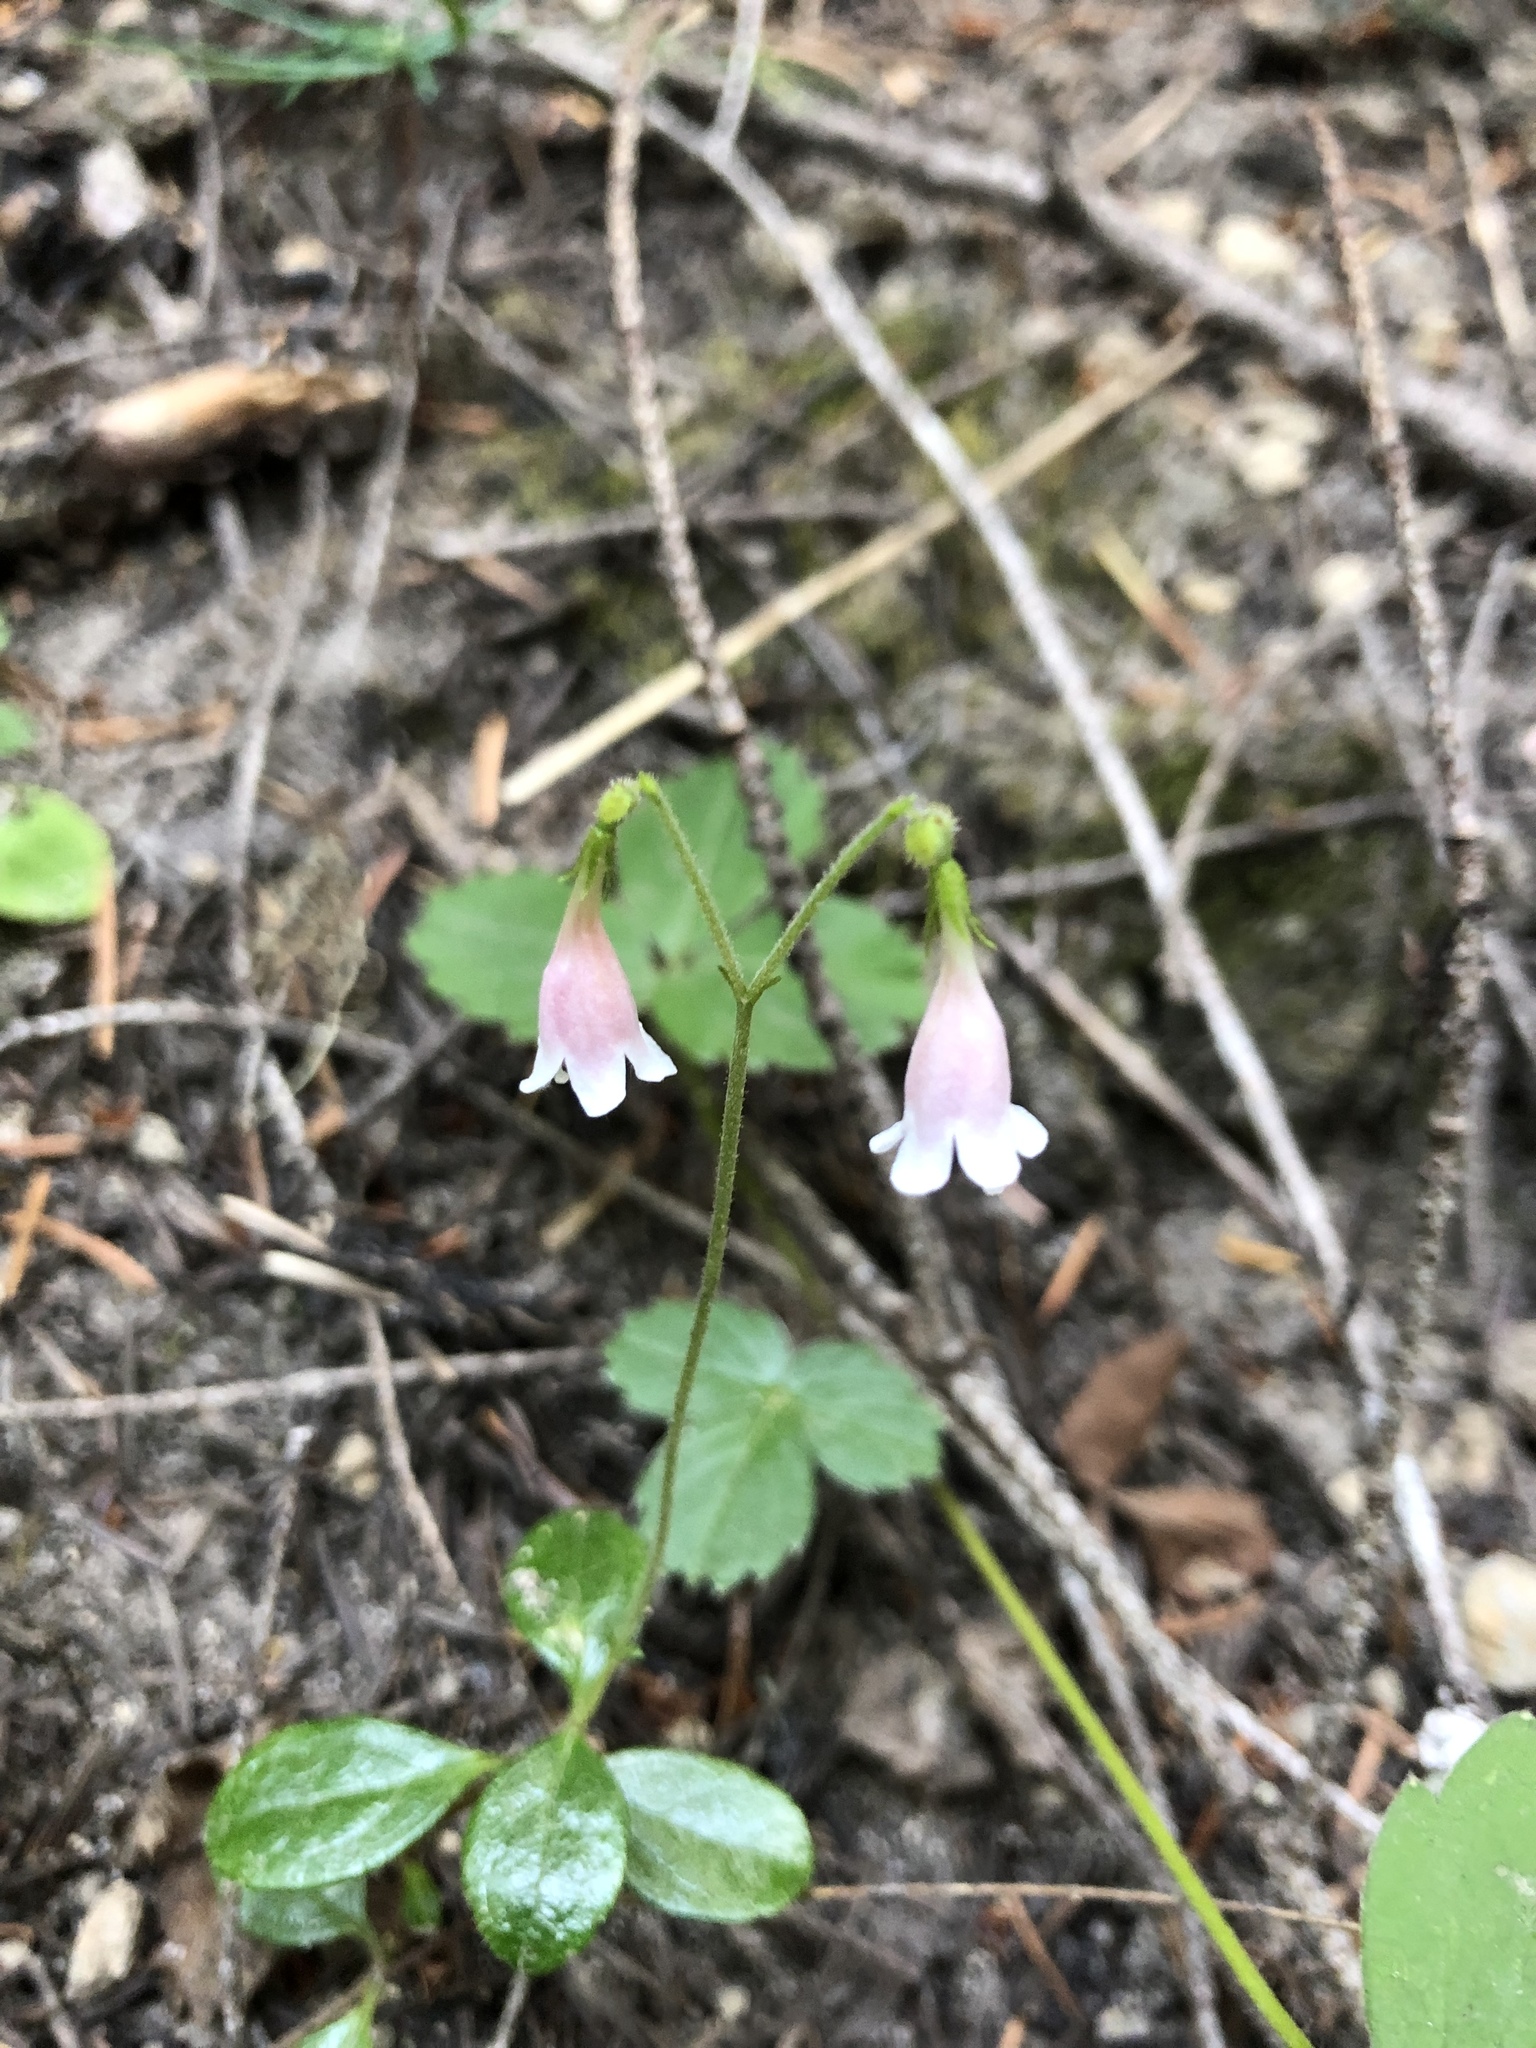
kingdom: Plantae
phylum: Tracheophyta
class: Magnoliopsida
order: Dipsacales
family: Caprifoliaceae
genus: Linnaea
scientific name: Linnaea borealis
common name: Twinflower
